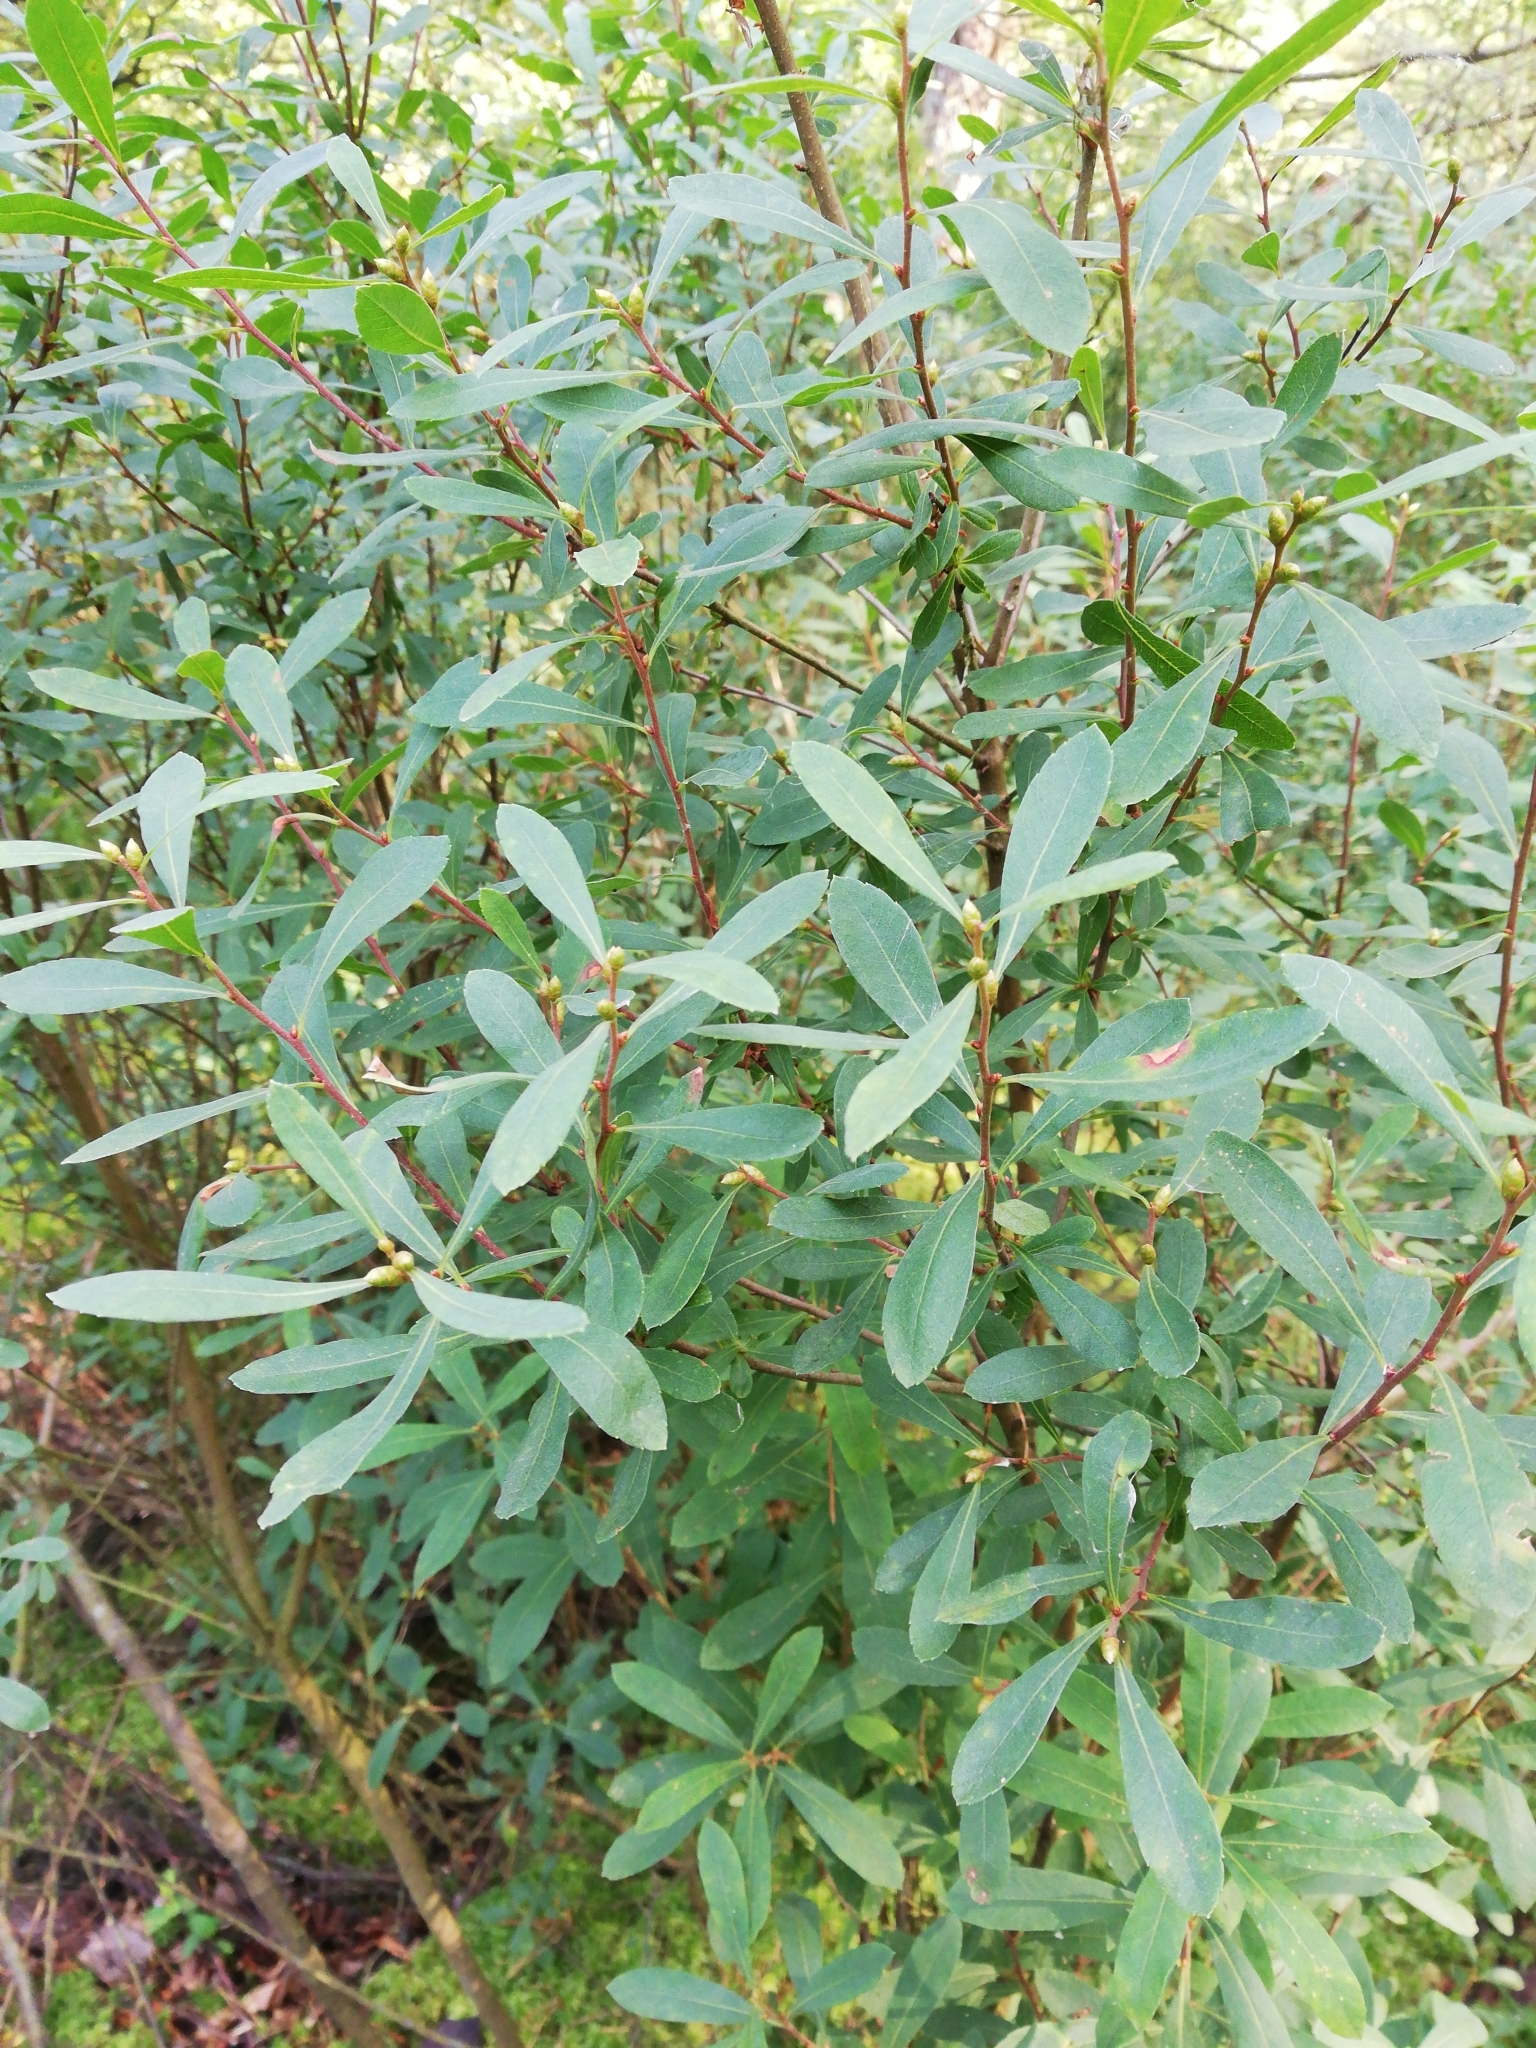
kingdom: Plantae
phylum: Tracheophyta
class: Magnoliopsida
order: Fagales
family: Myricaceae
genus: Myrica
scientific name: Myrica gale
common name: Sweet gale
